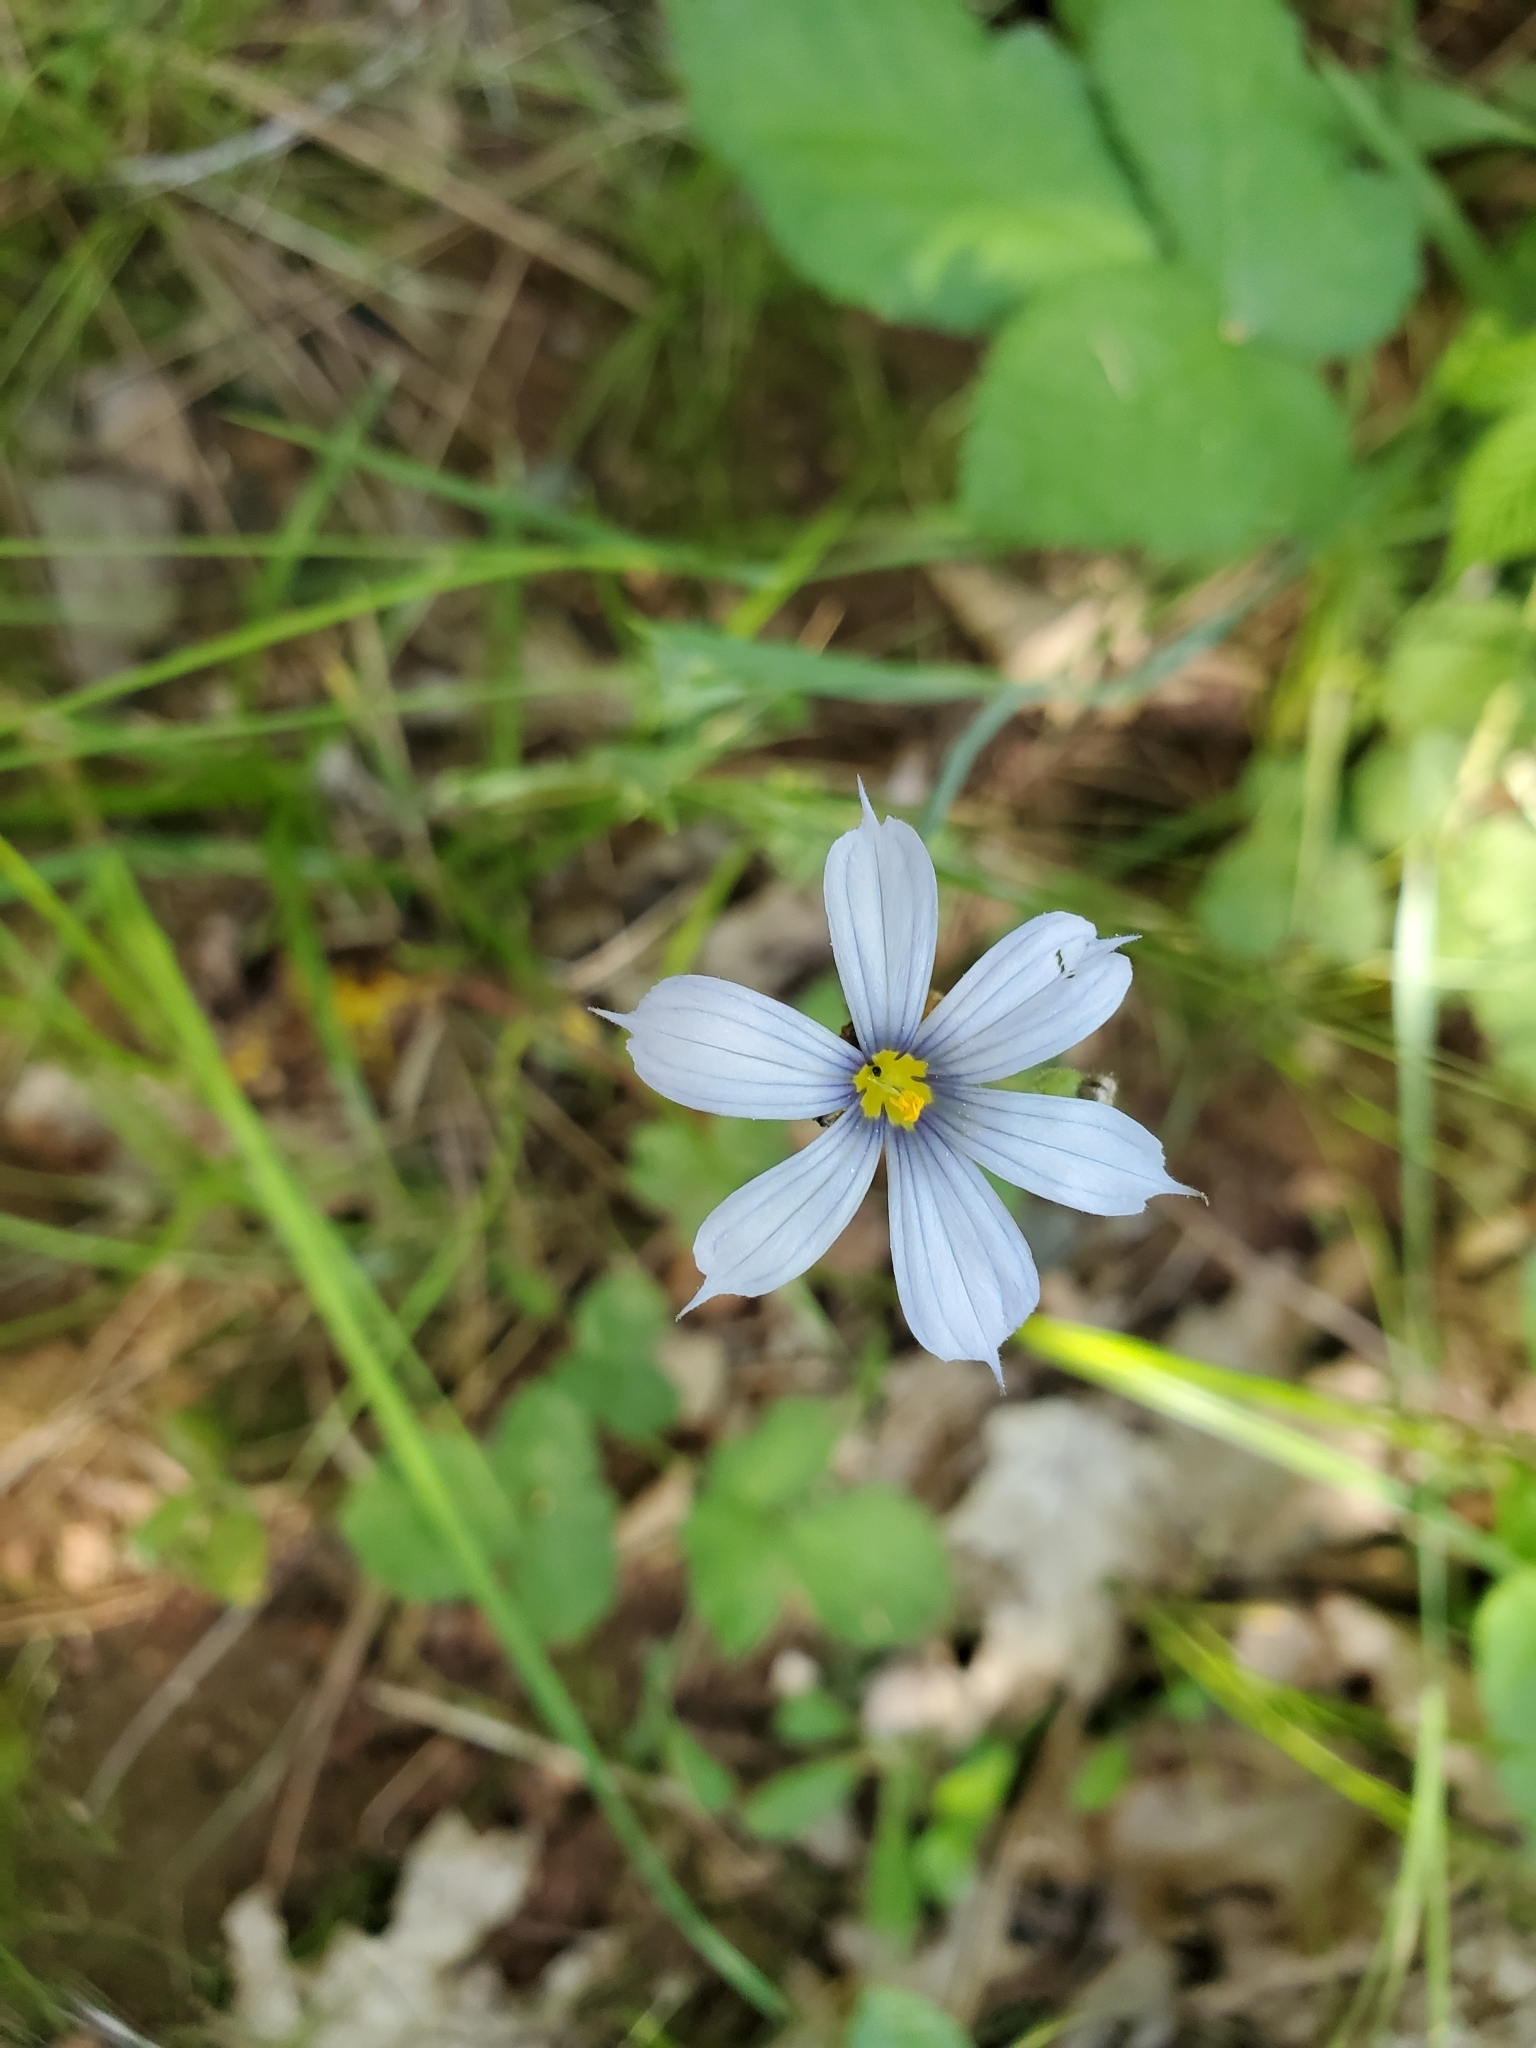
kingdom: Plantae
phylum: Tracheophyta
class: Liliopsida
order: Asparagales
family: Iridaceae
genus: Sisyrinchium
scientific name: Sisyrinchium bellum
